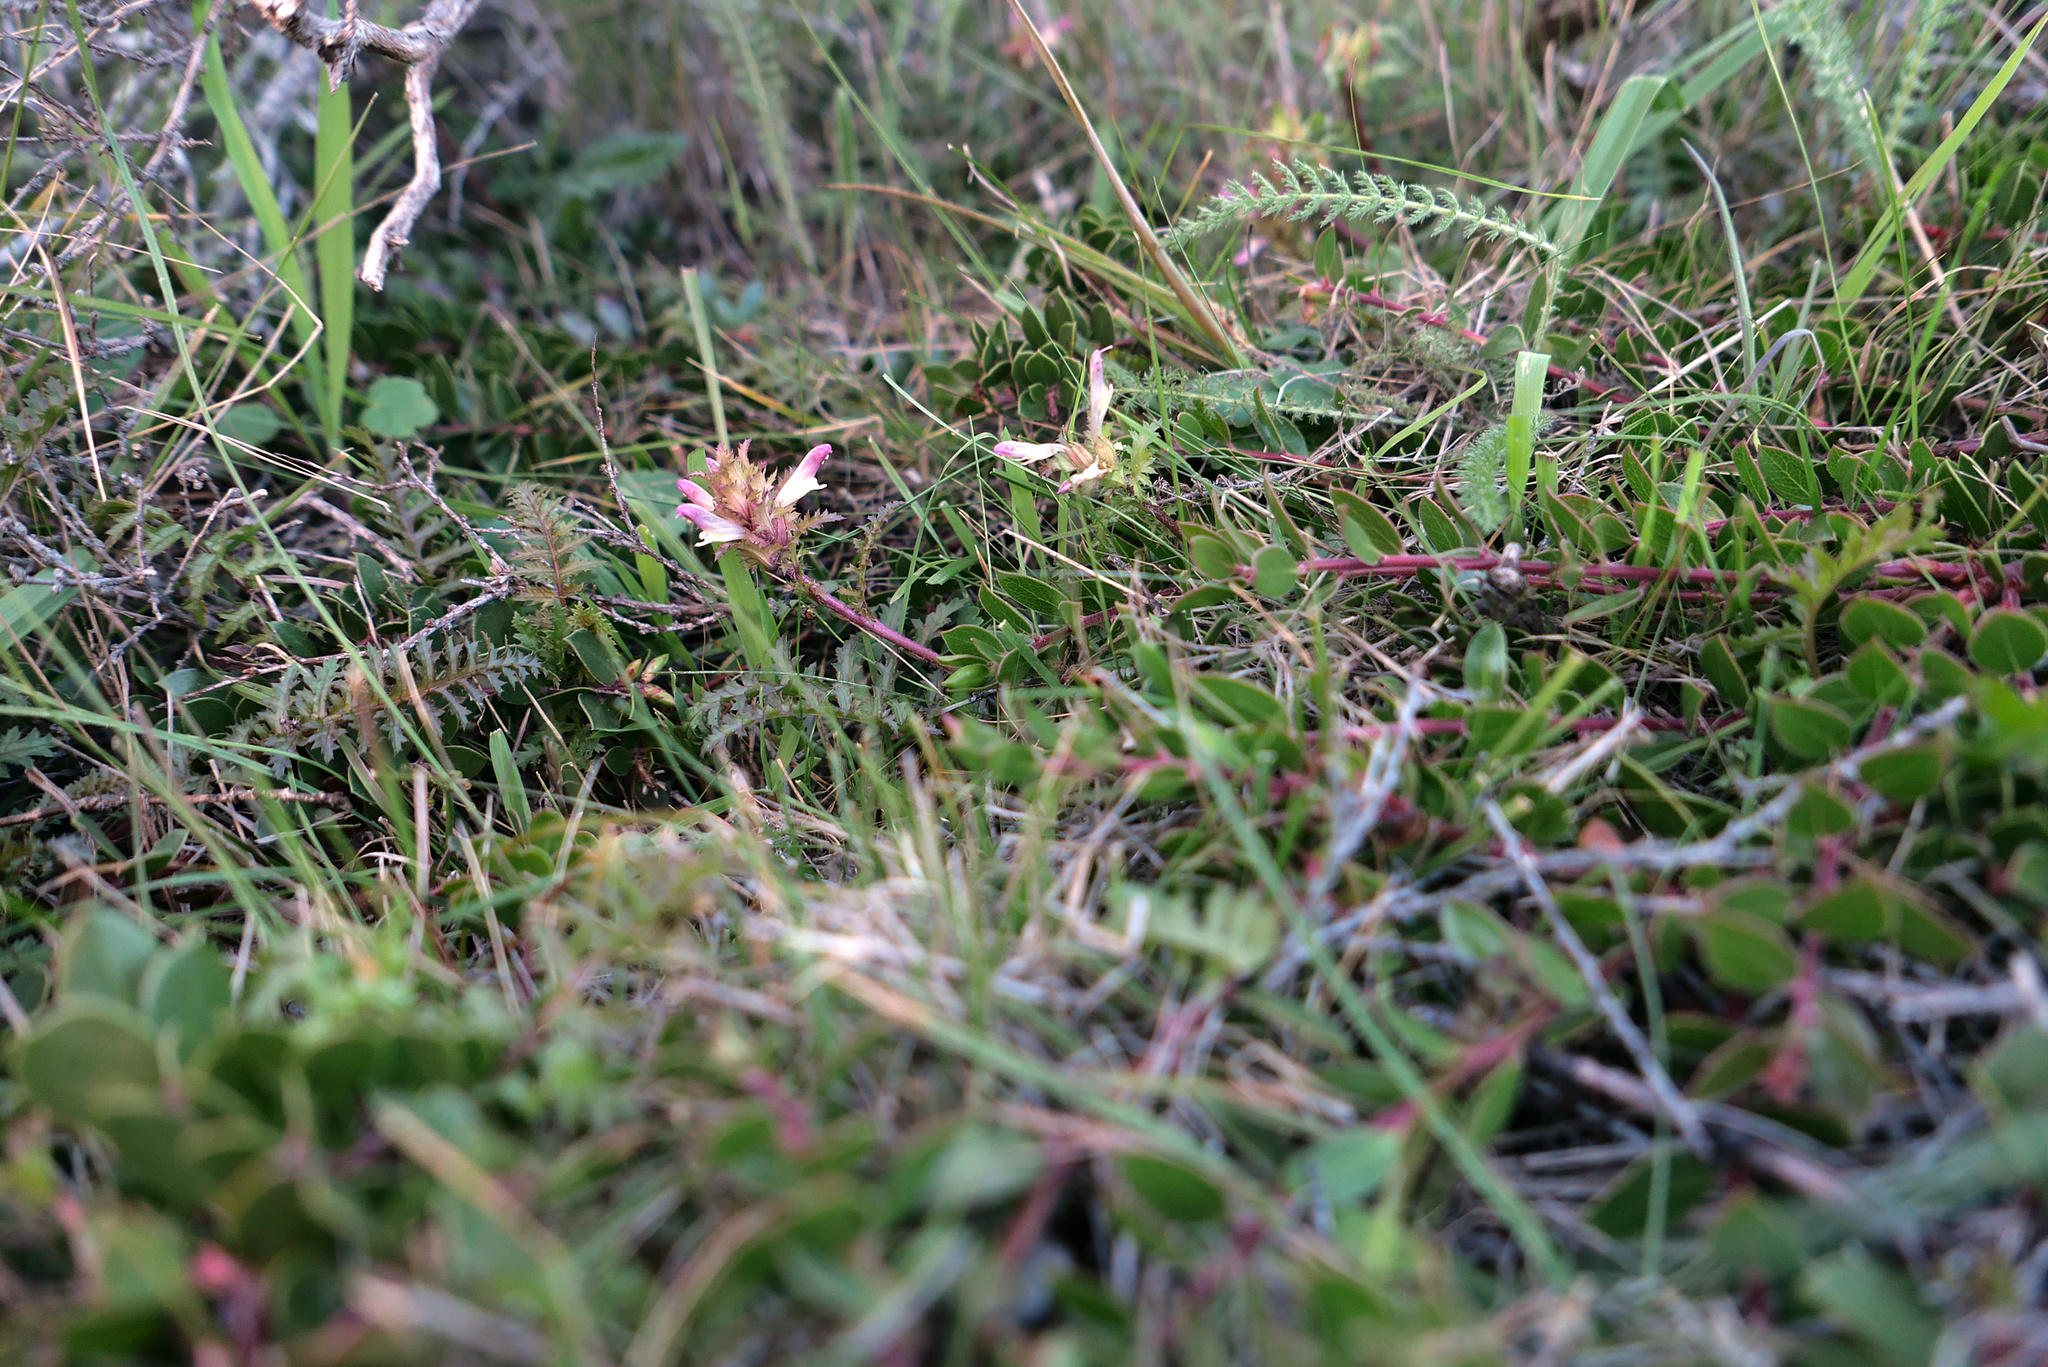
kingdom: Plantae
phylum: Tracheophyta
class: Magnoliopsida
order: Lamiales
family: Orobanchaceae
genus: Pedicularis
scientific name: Pedicularis rigginsiae
